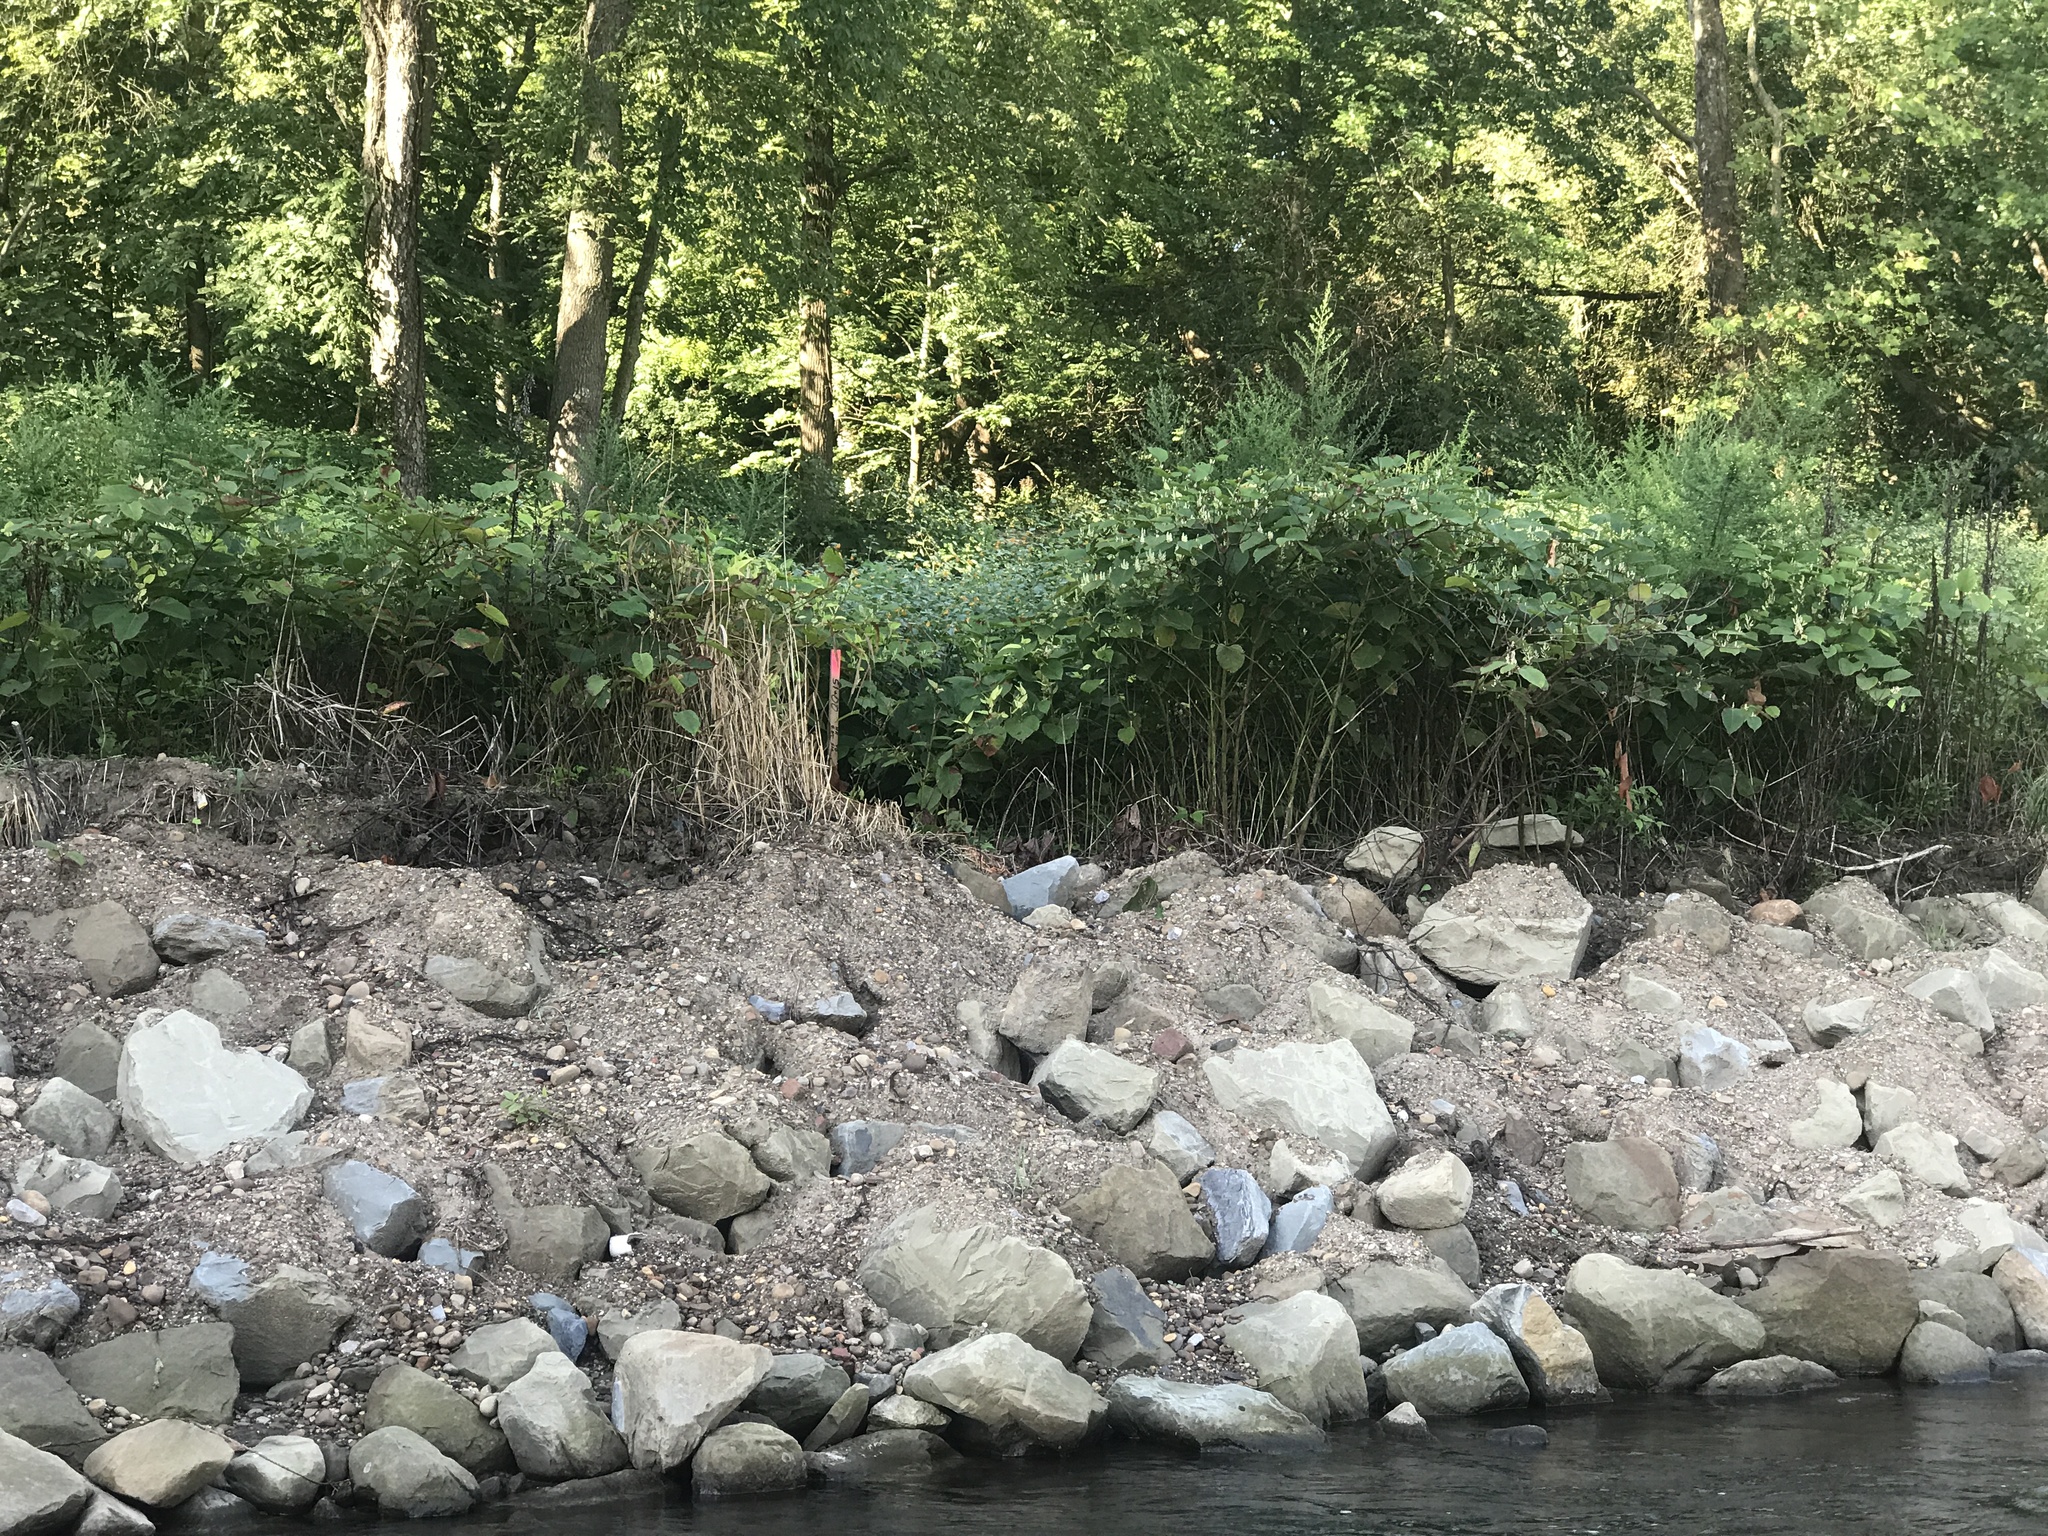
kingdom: Plantae
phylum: Tracheophyta
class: Magnoliopsida
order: Caryophyllales
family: Polygonaceae
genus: Reynoutria
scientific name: Reynoutria japonica
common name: Japanese knotweed
